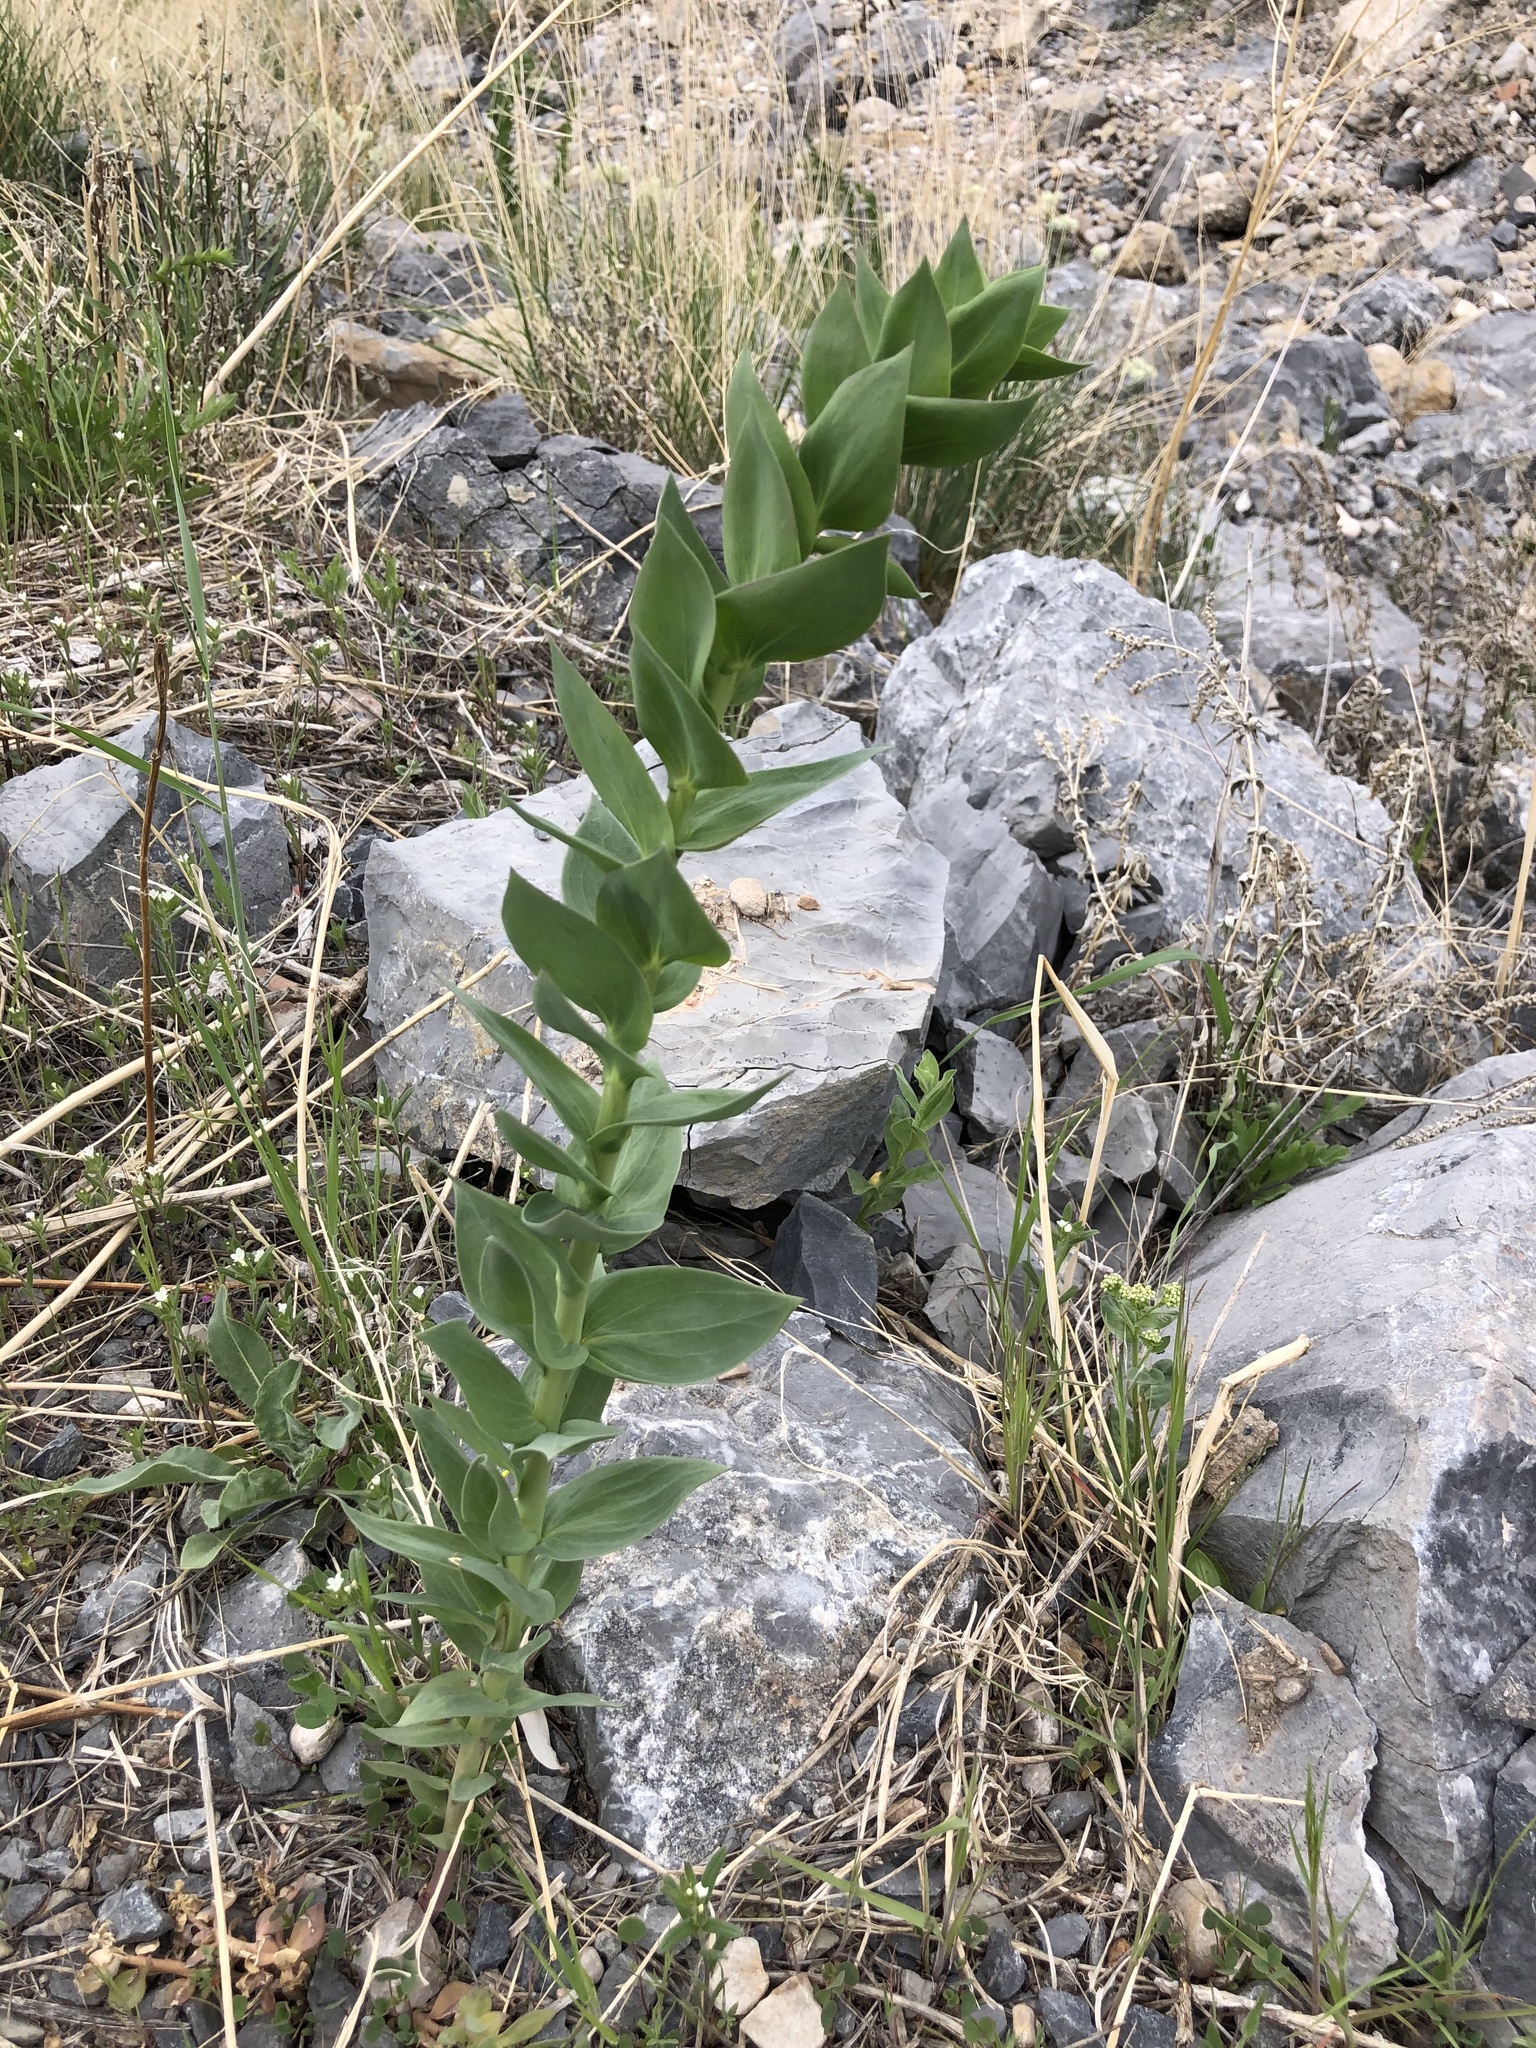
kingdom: Plantae
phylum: Tracheophyta
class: Magnoliopsida
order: Lamiales
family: Plantaginaceae
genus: Linaria
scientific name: Linaria dalmatica
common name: Dalmatian toadflax
